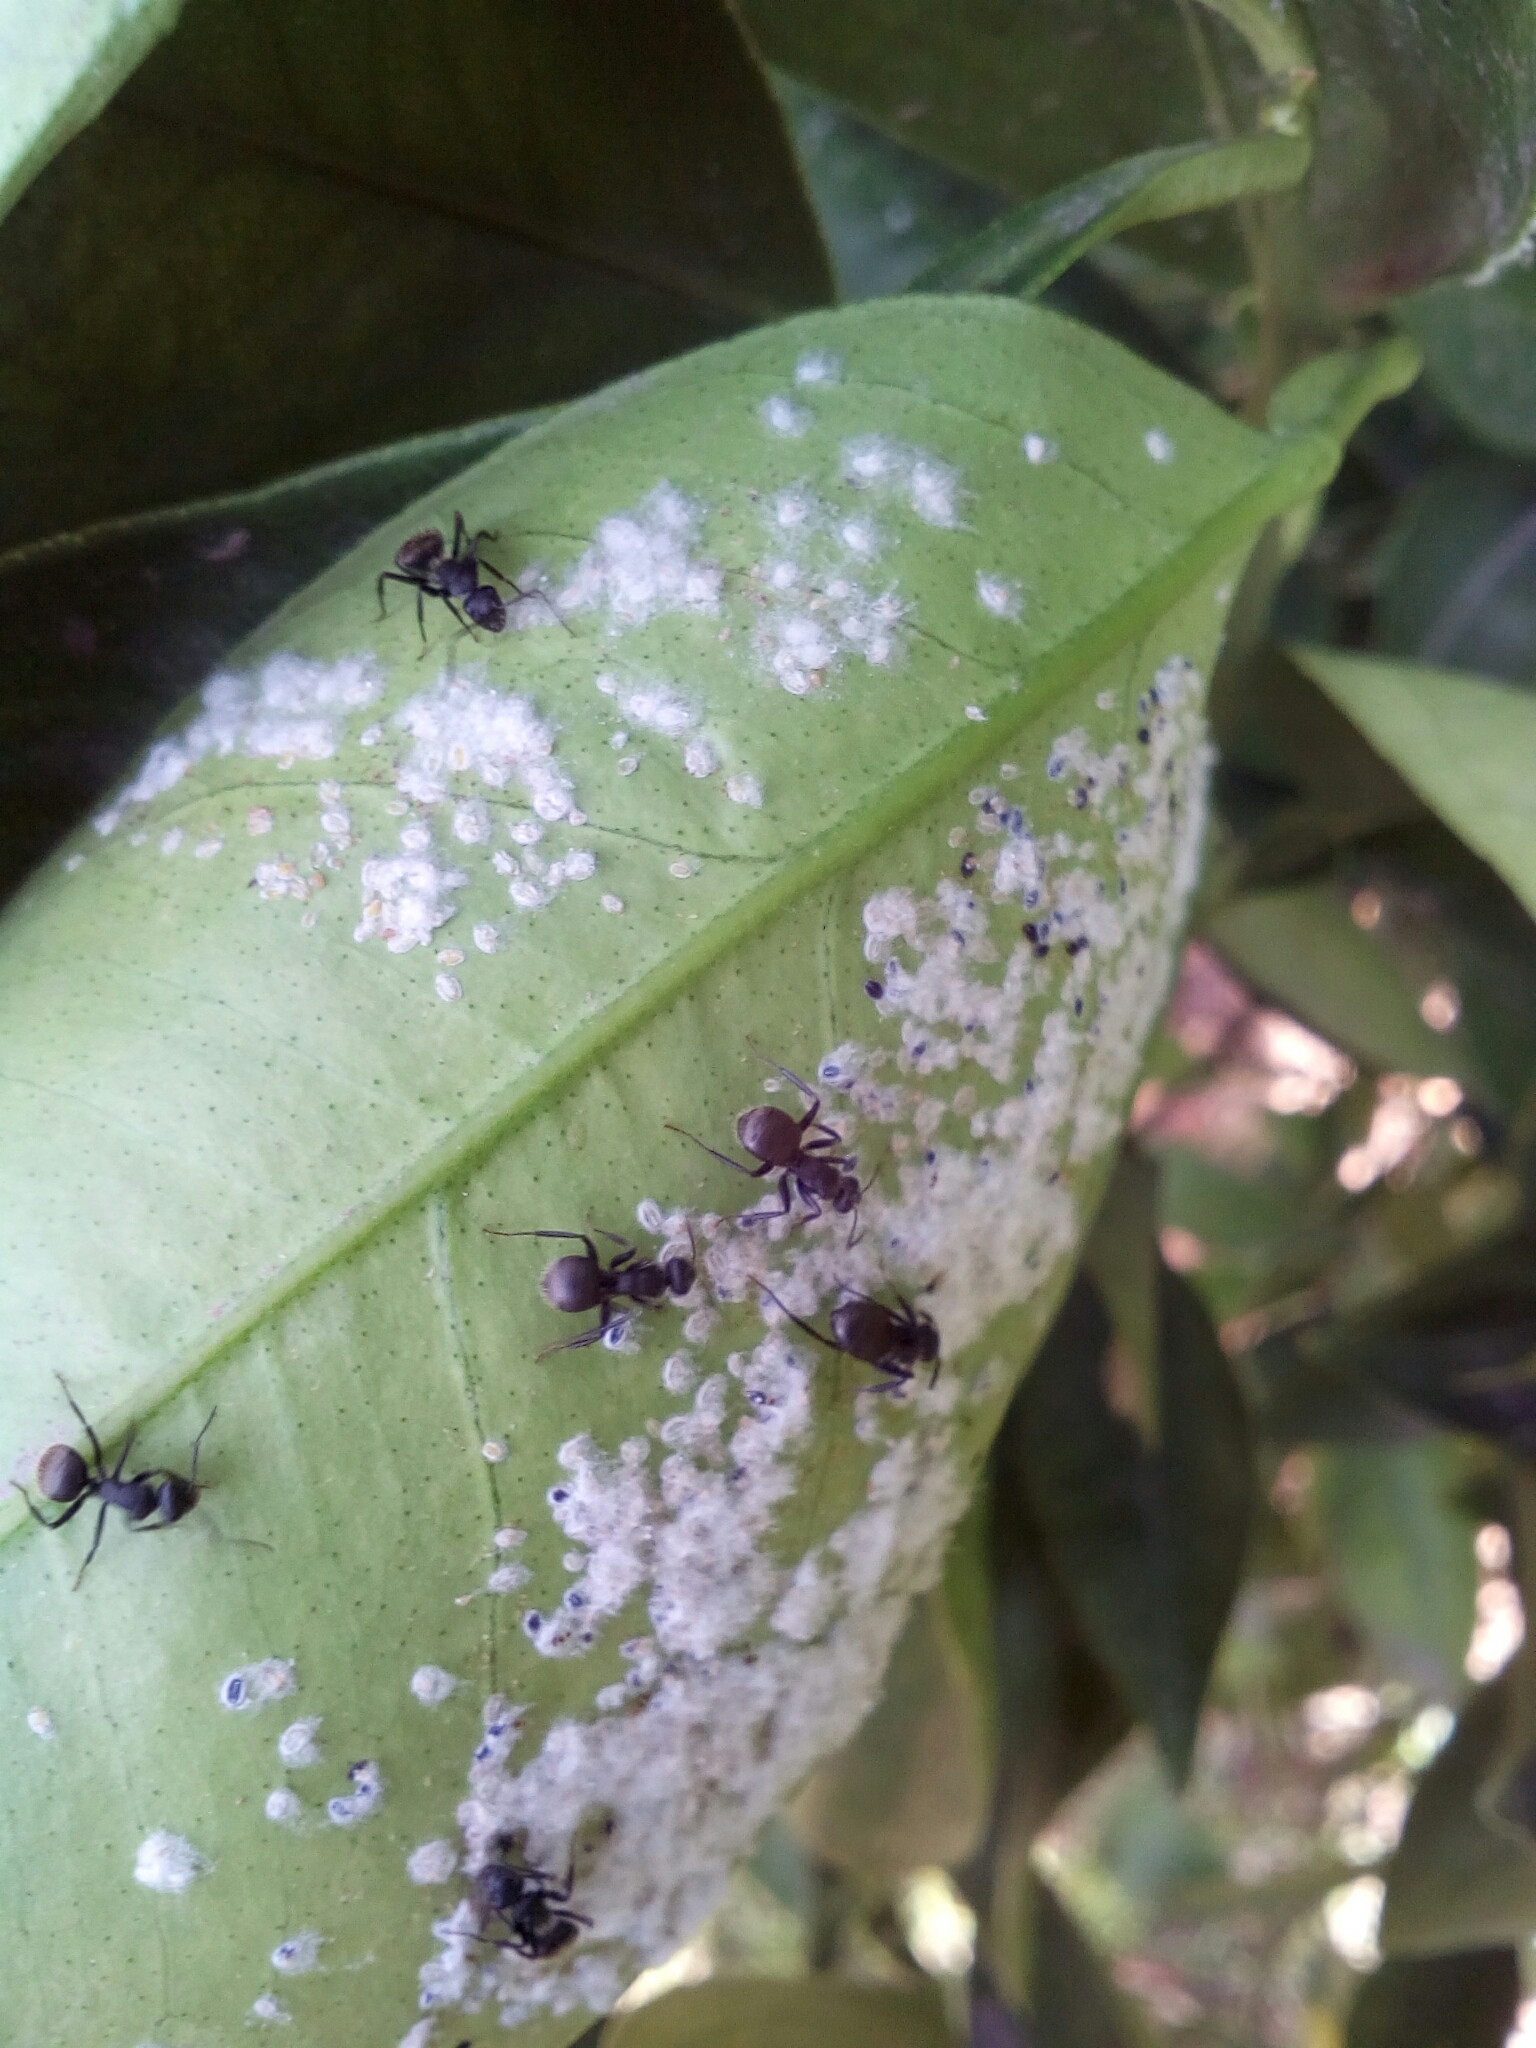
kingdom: Animalia
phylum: Arthropoda
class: Insecta
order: Hymenoptera
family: Formicidae
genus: Camponotus
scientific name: Camponotus mus
